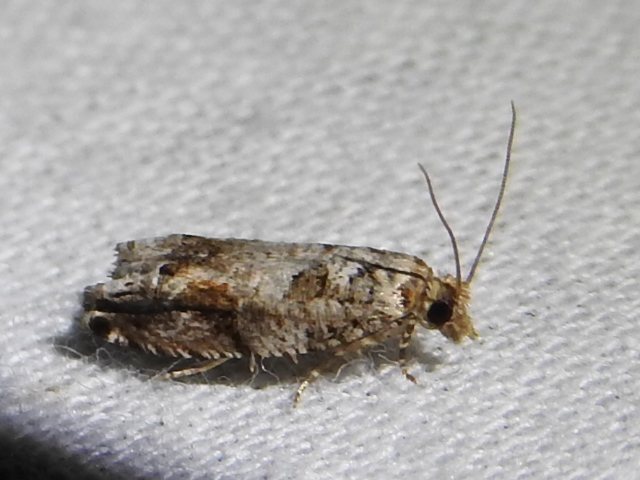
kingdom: Animalia
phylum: Arthropoda
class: Insecta
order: Lepidoptera
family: Tortricidae
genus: Gretchena
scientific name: Gretchena bolliana
